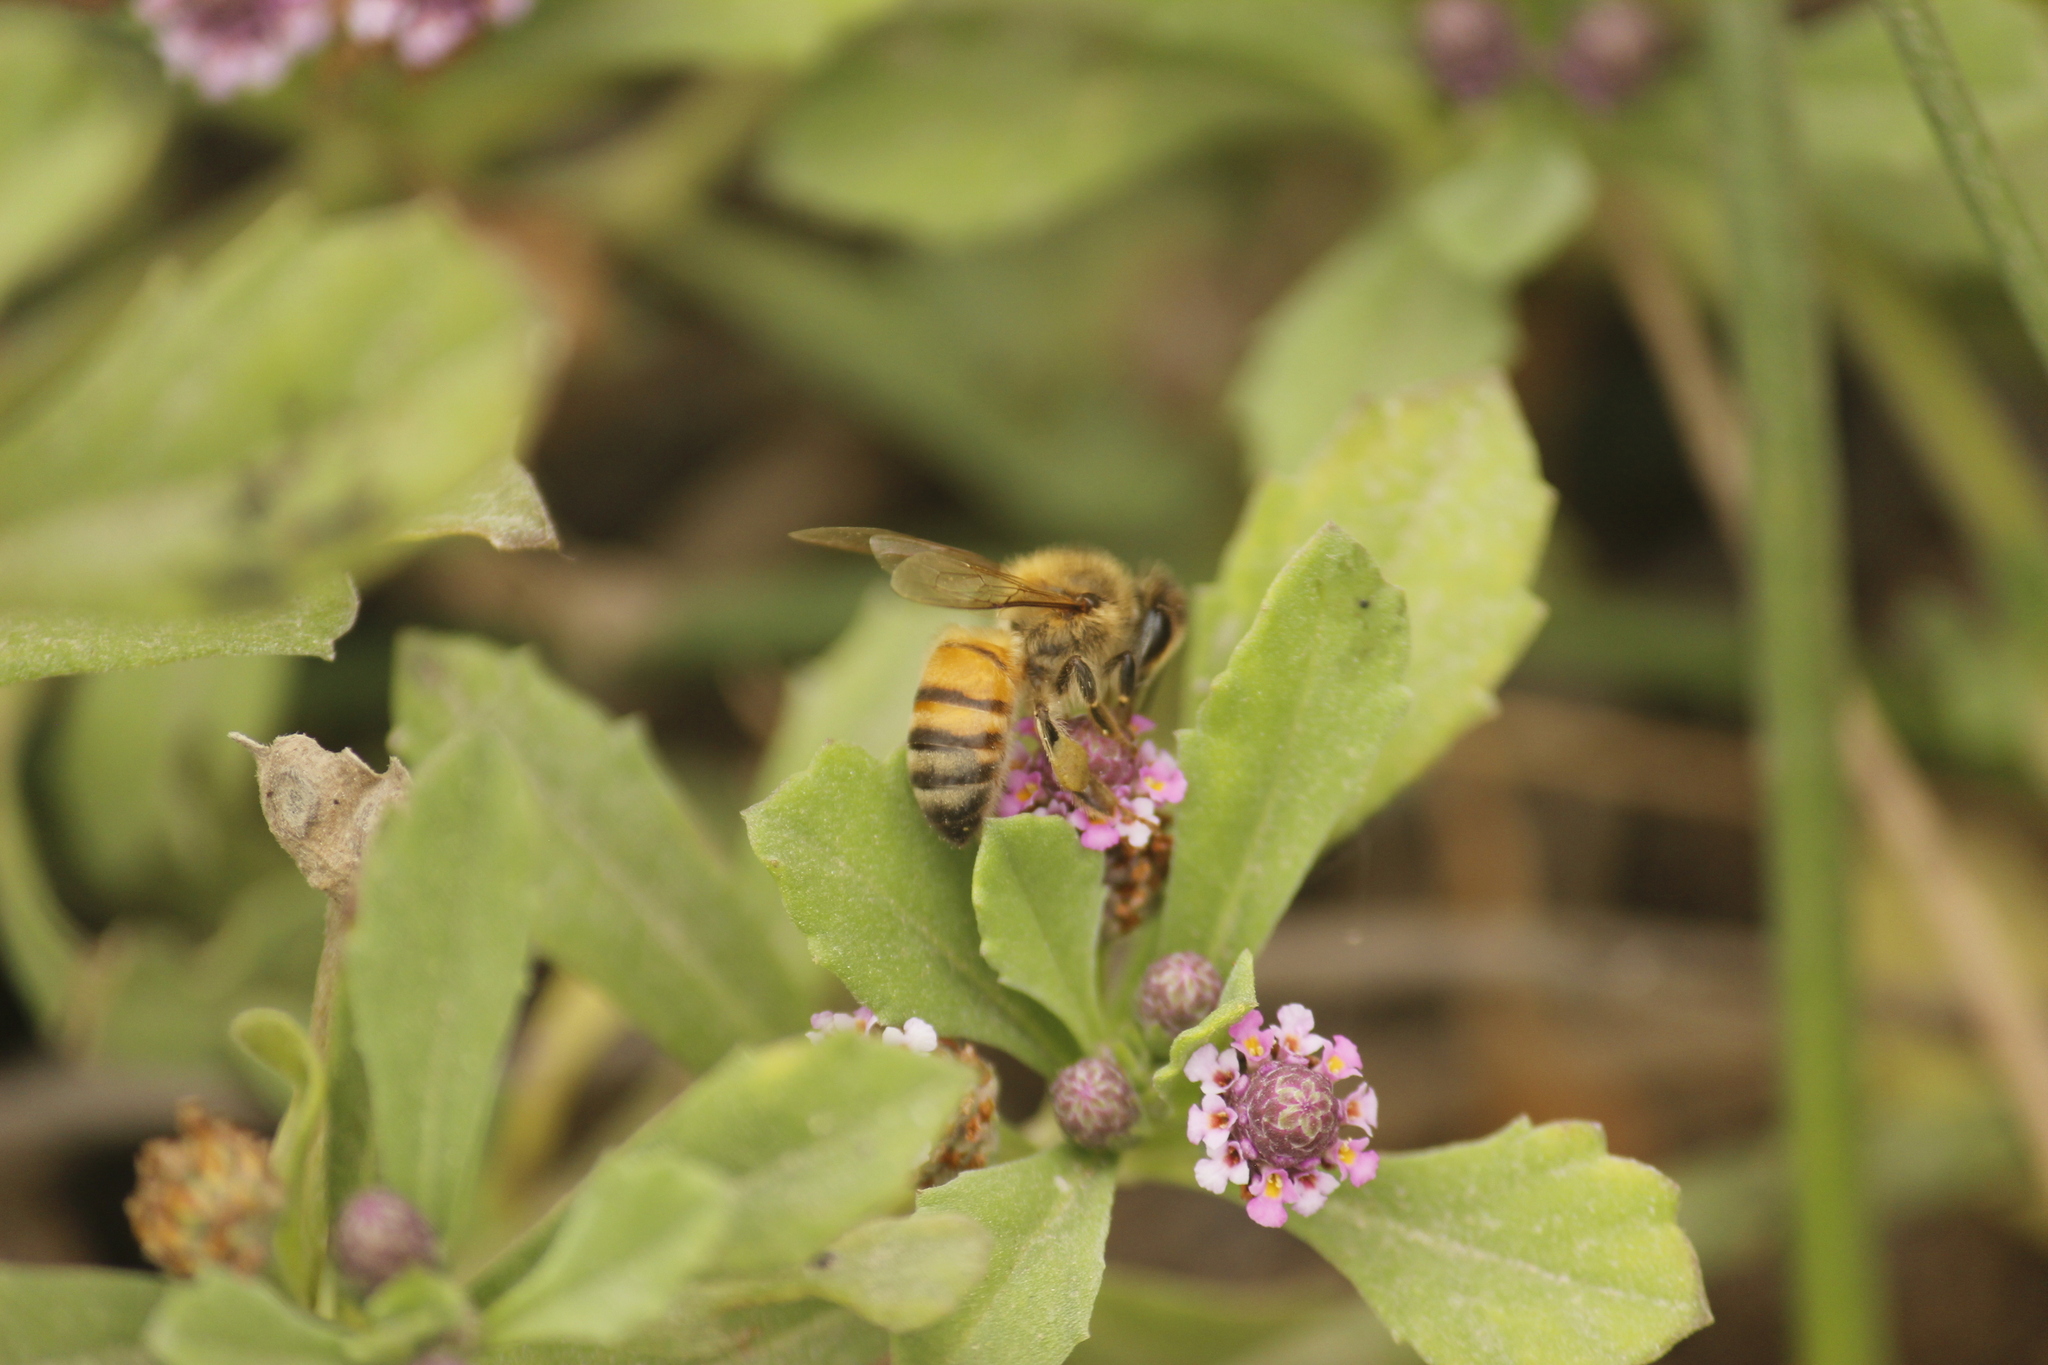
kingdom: Animalia
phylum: Arthropoda
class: Insecta
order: Hymenoptera
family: Apidae
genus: Apis
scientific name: Apis mellifera
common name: Honey bee
